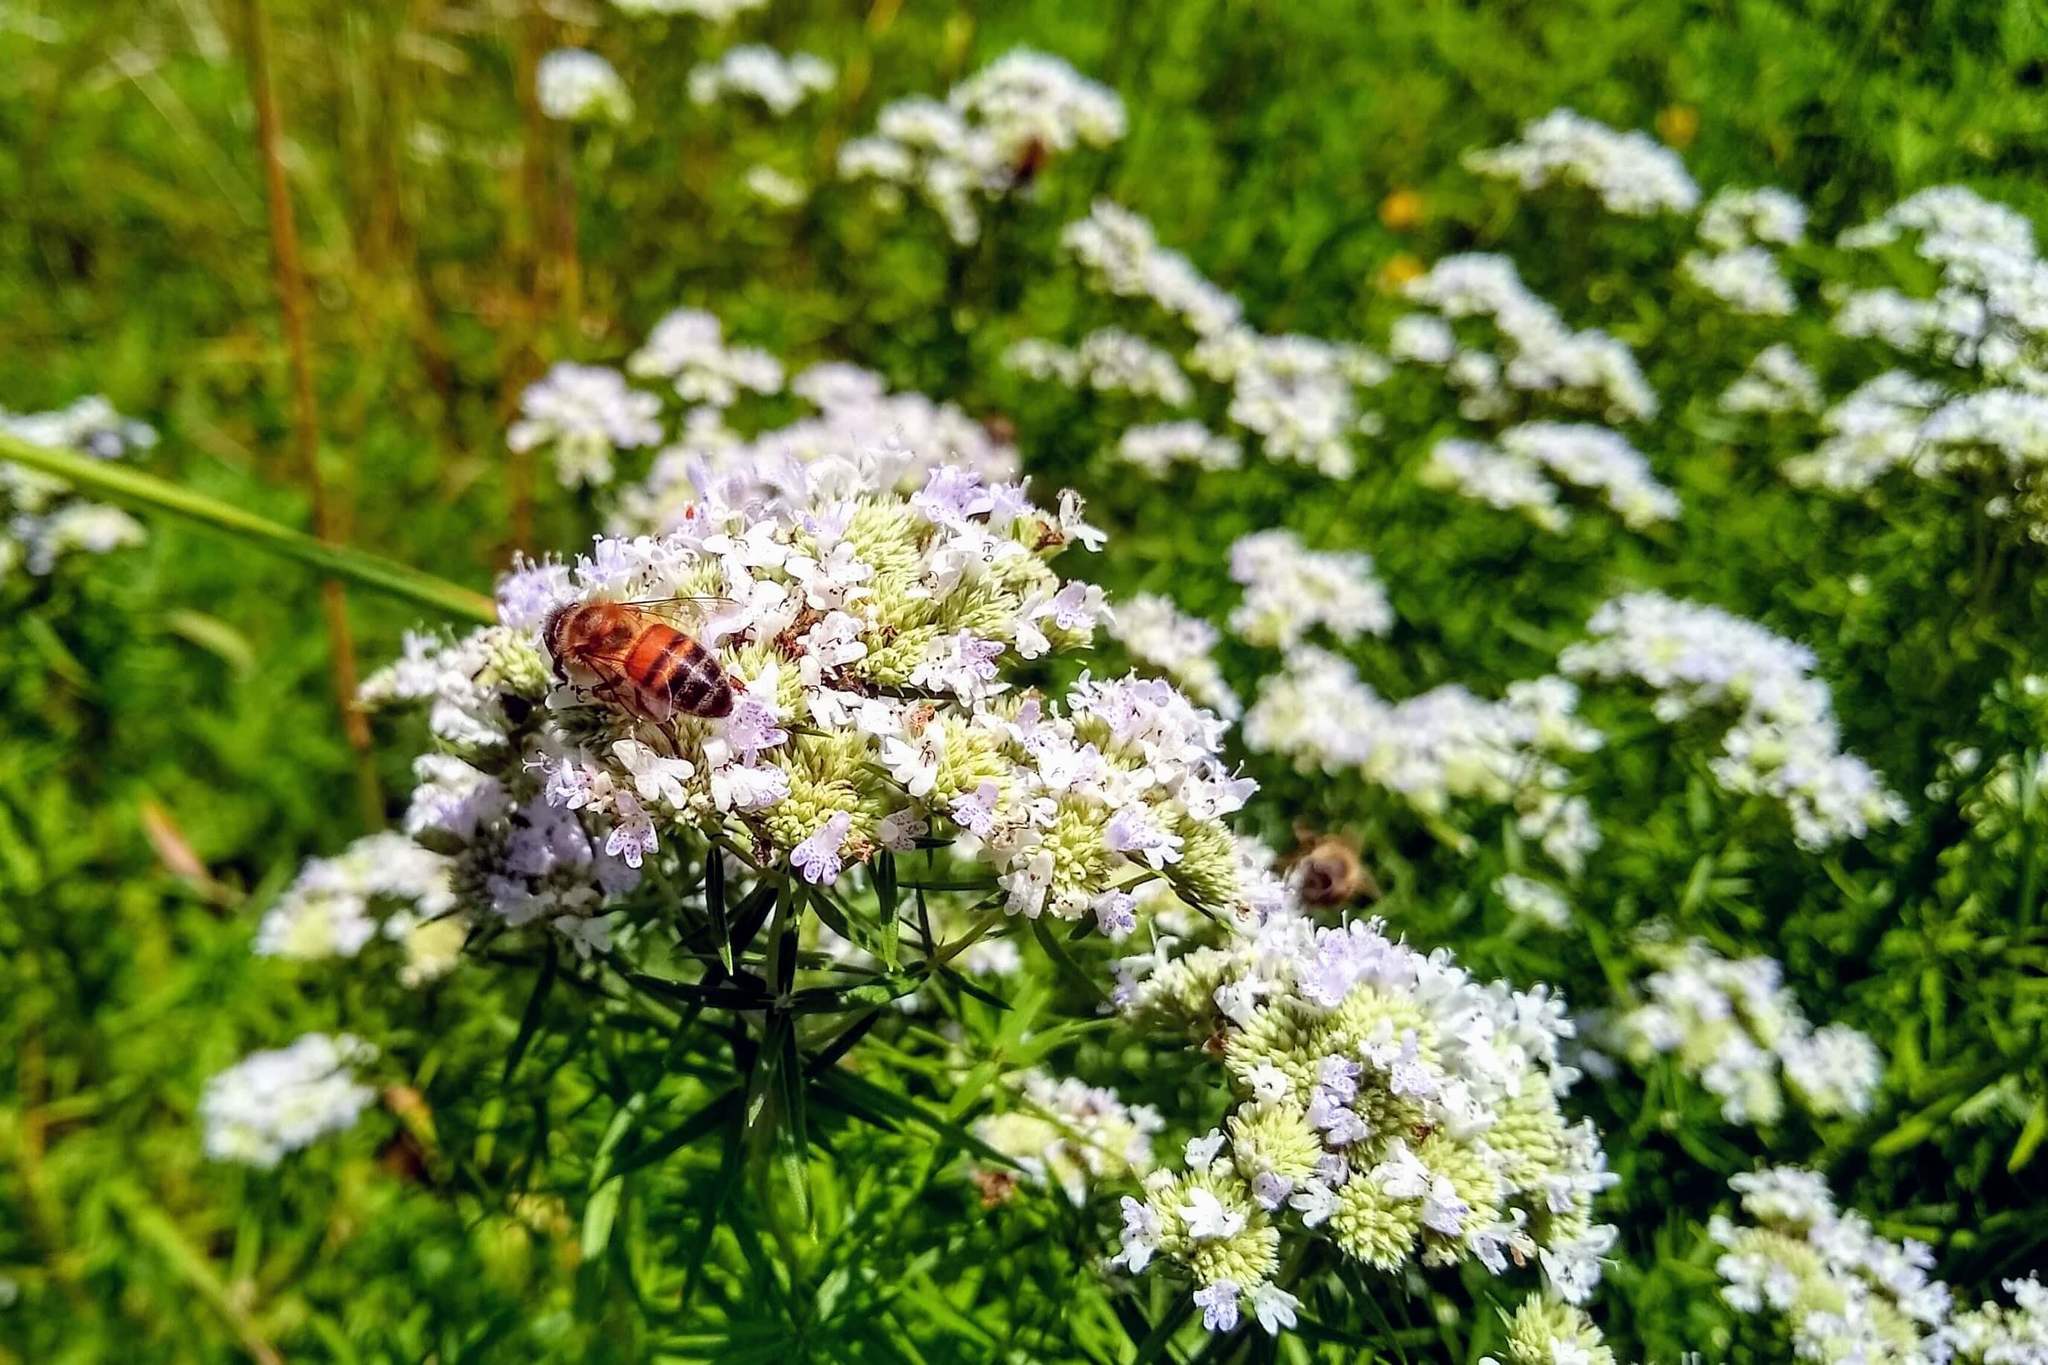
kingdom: Plantae
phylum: Tracheophyta
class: Magnoliopsida
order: Lamiales
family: Lamiaceae
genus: Pycnanthemum
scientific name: Pycnanthemum tenuifolium
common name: Narrow-leaf mountain-mint
